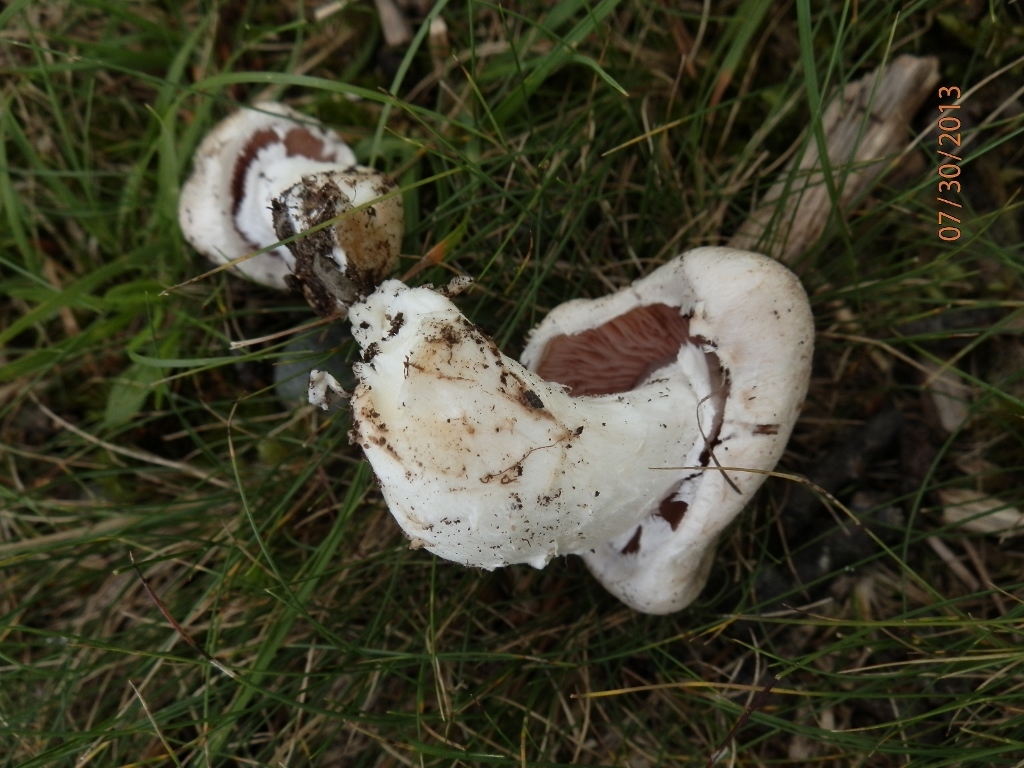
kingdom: Fungi
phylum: Basidiomycota
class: Agaricomycetes
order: Agaricales
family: Agaricaceae
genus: Agaricus
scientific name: Agaricus campestris
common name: Field mushroom
